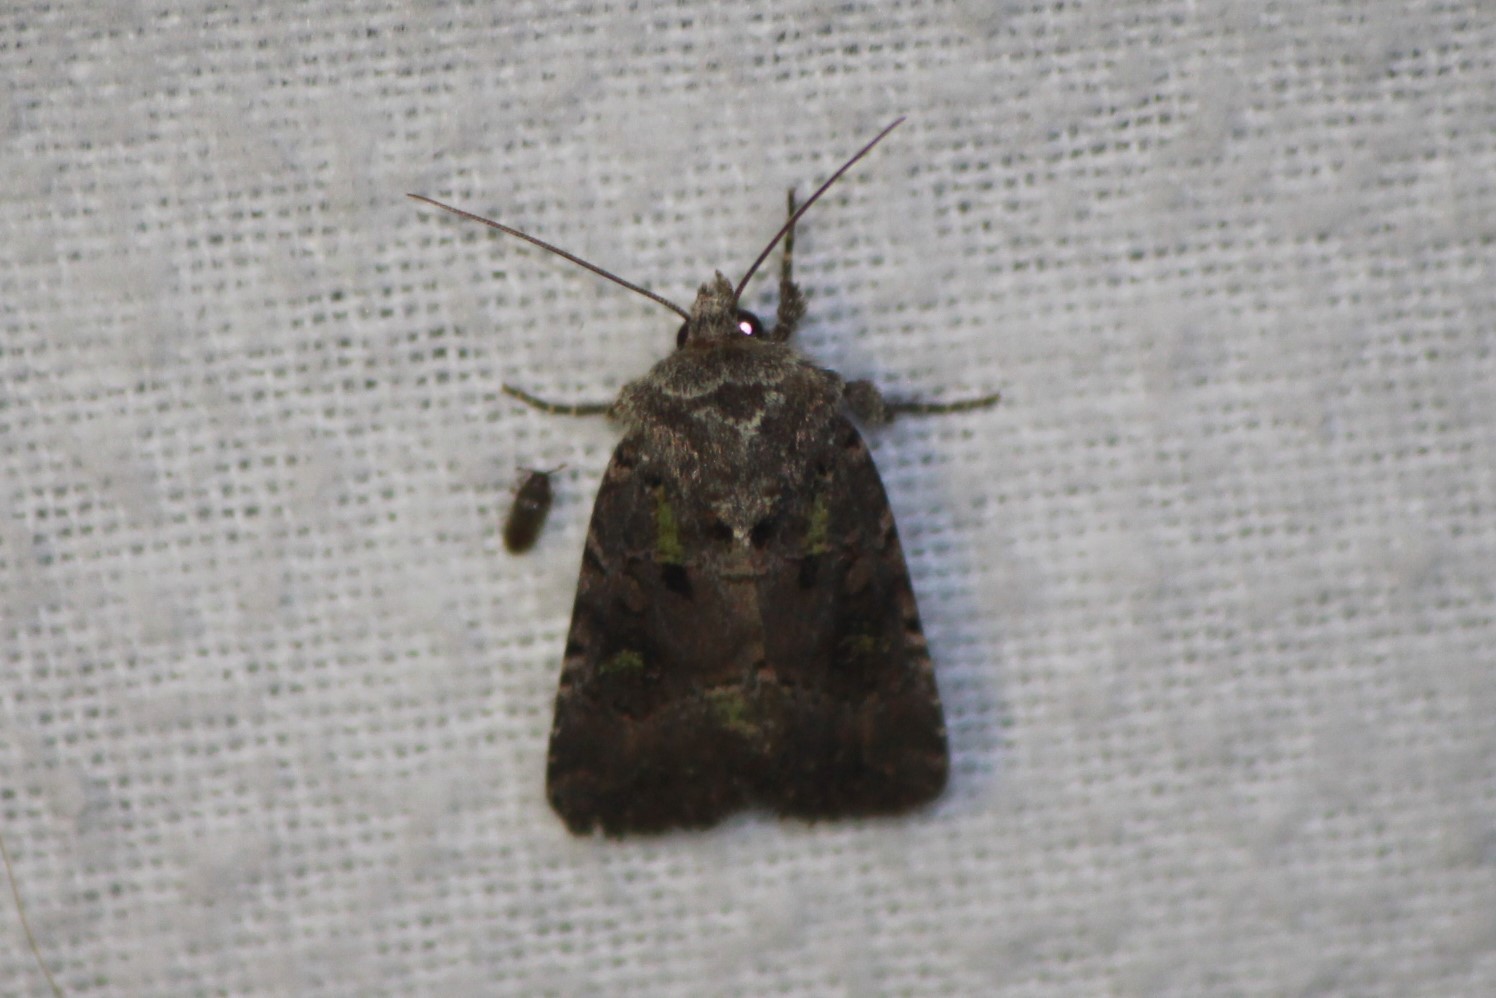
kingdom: Animalia
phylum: Arthropoda
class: Insecta
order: Lepidoptera
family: Noctuidae
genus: Lacinipolia
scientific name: Lacinipolia renigera
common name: Kidney-spotted minor
